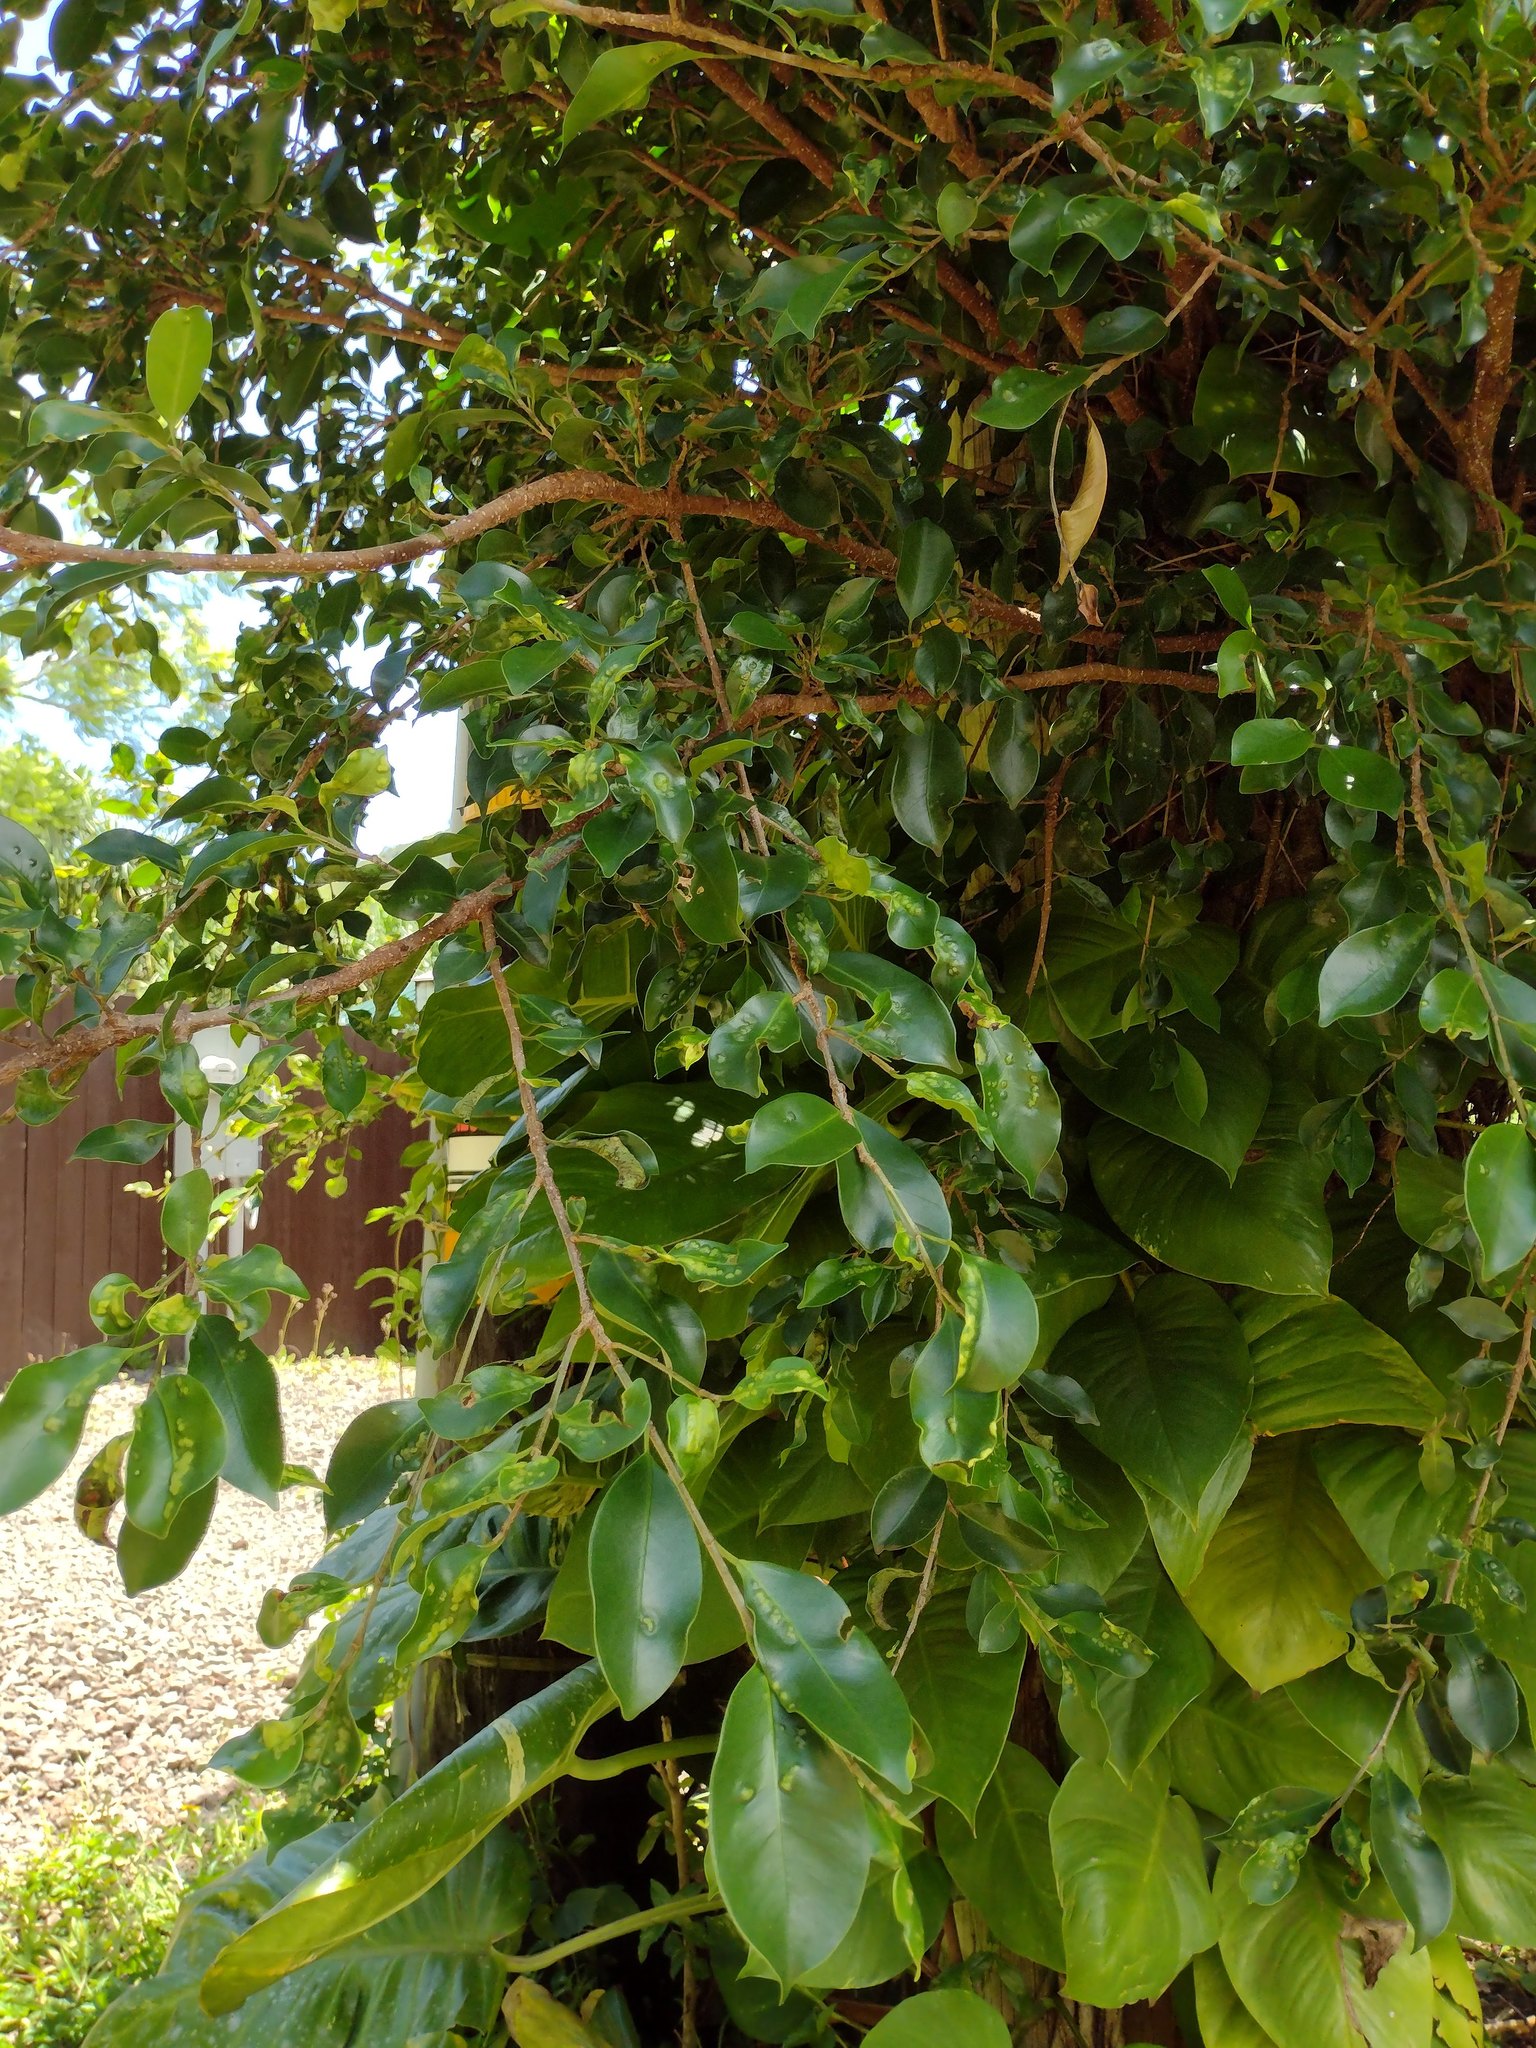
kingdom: Plantae
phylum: Tracheophyta
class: Magnoliopsida
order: Rosales
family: Moraceae
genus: Ficus
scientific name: Ficus microcarpa
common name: Chinese banyan
